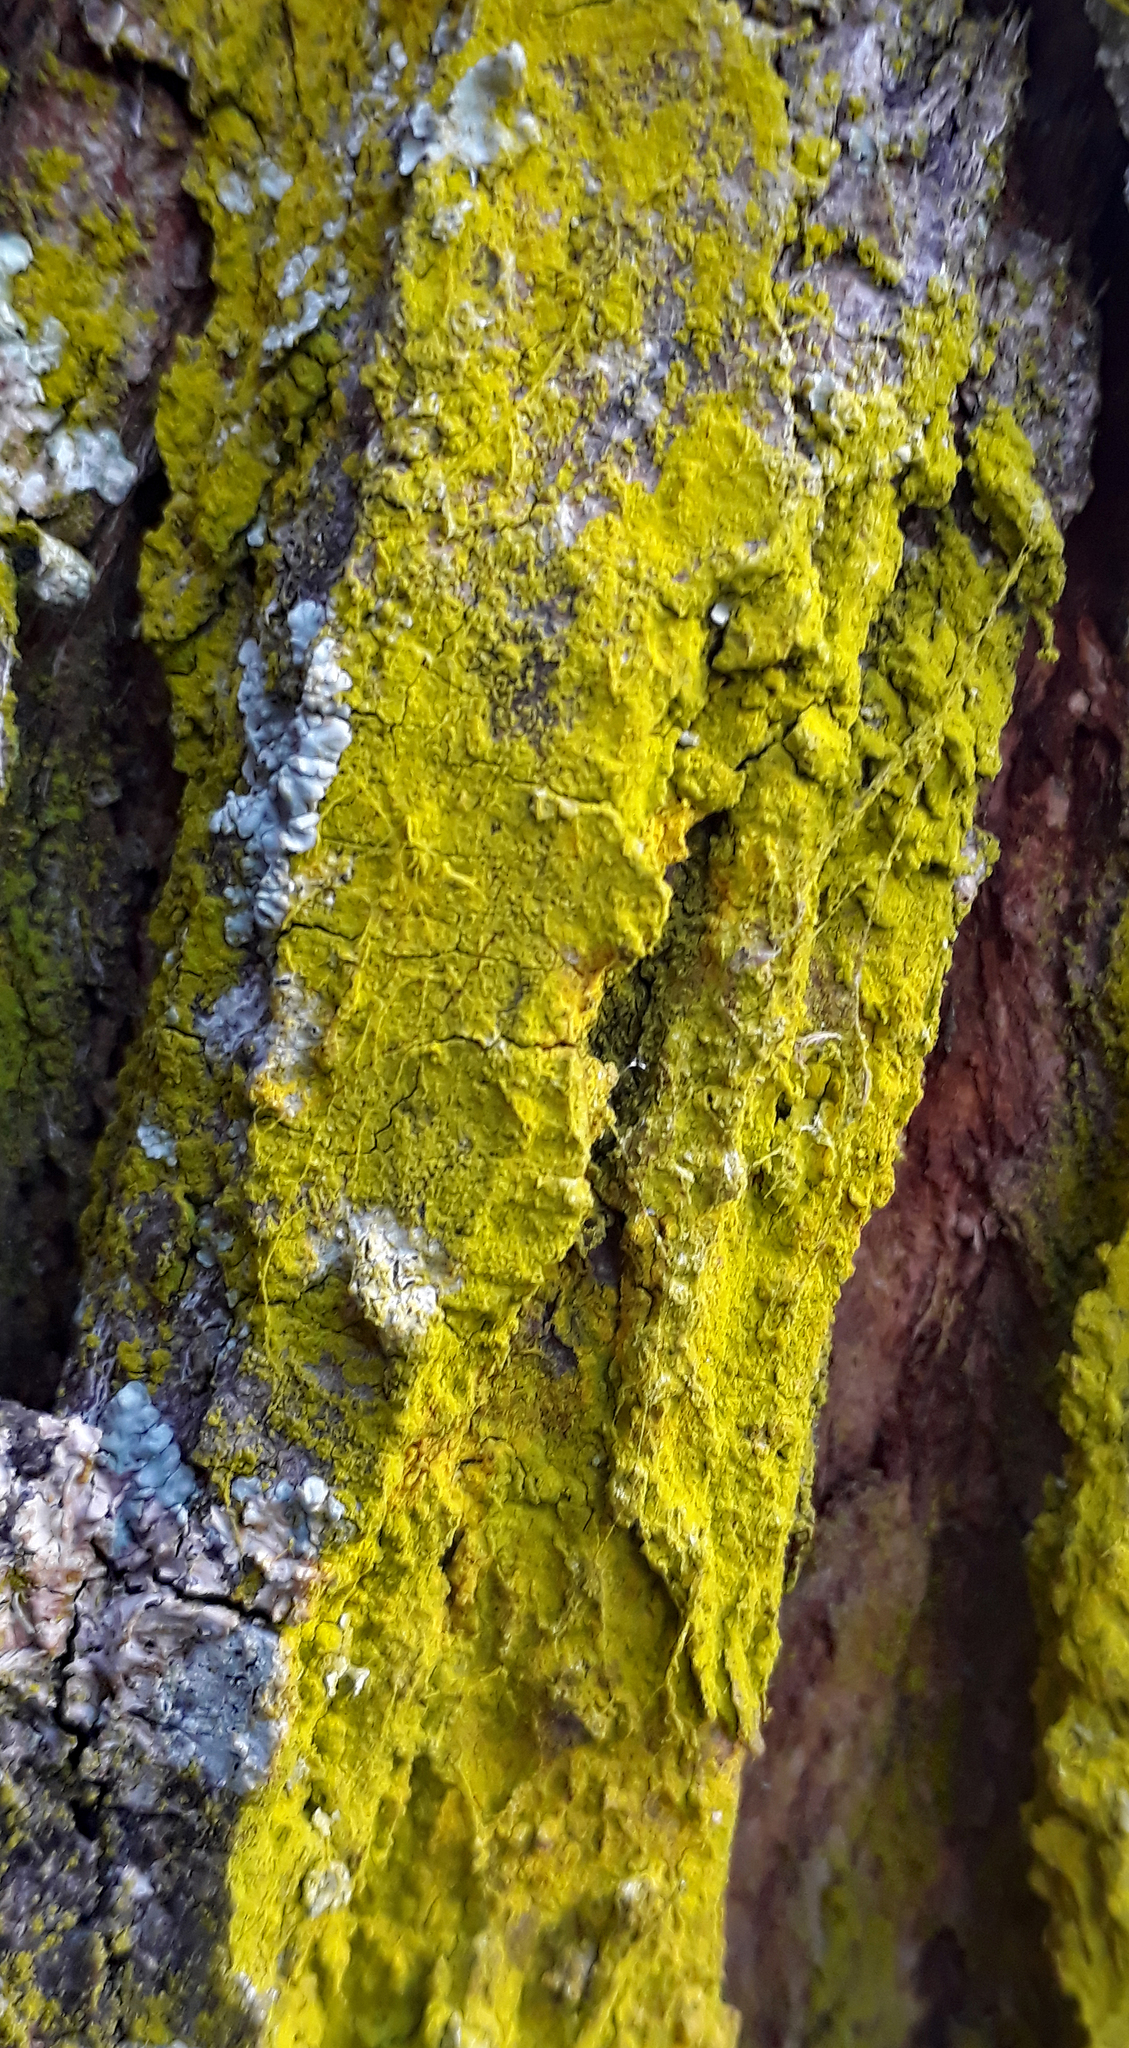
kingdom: Fungi
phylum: Ascomycota
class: Arthoniomycetes
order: Arthoniales
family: Chrysotrichaceae
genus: Chrysothrix
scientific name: Chrysothrix xanthina
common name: Common gold-dust
